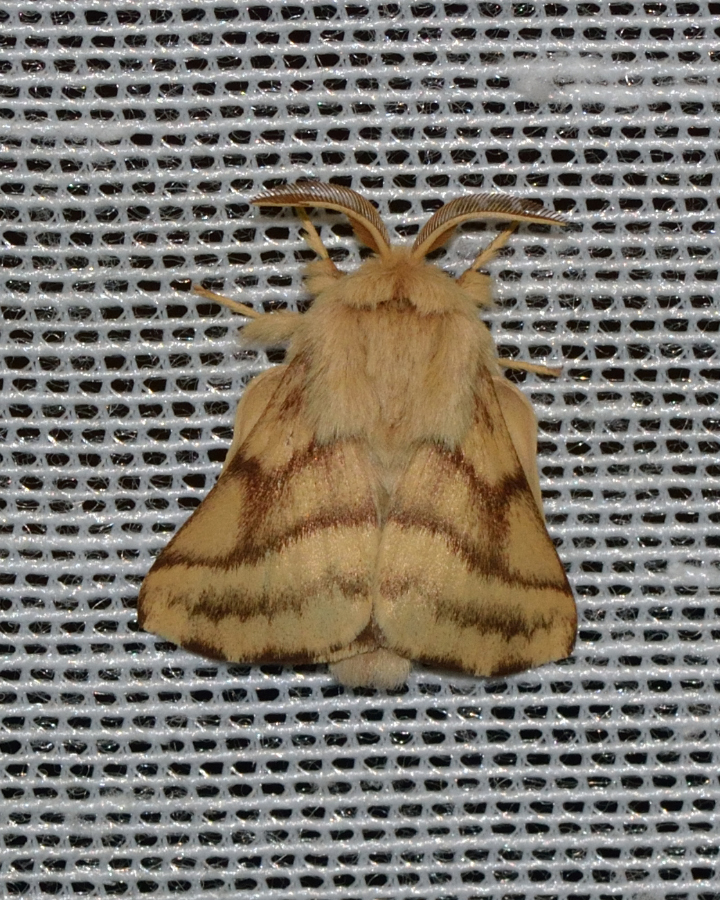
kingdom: Animalia
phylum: Arthropoda
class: Insecta
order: Lepidoptera
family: Lasiocampidae
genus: Malacosoma
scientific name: Malacosoma castrense
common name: Ground lackey
